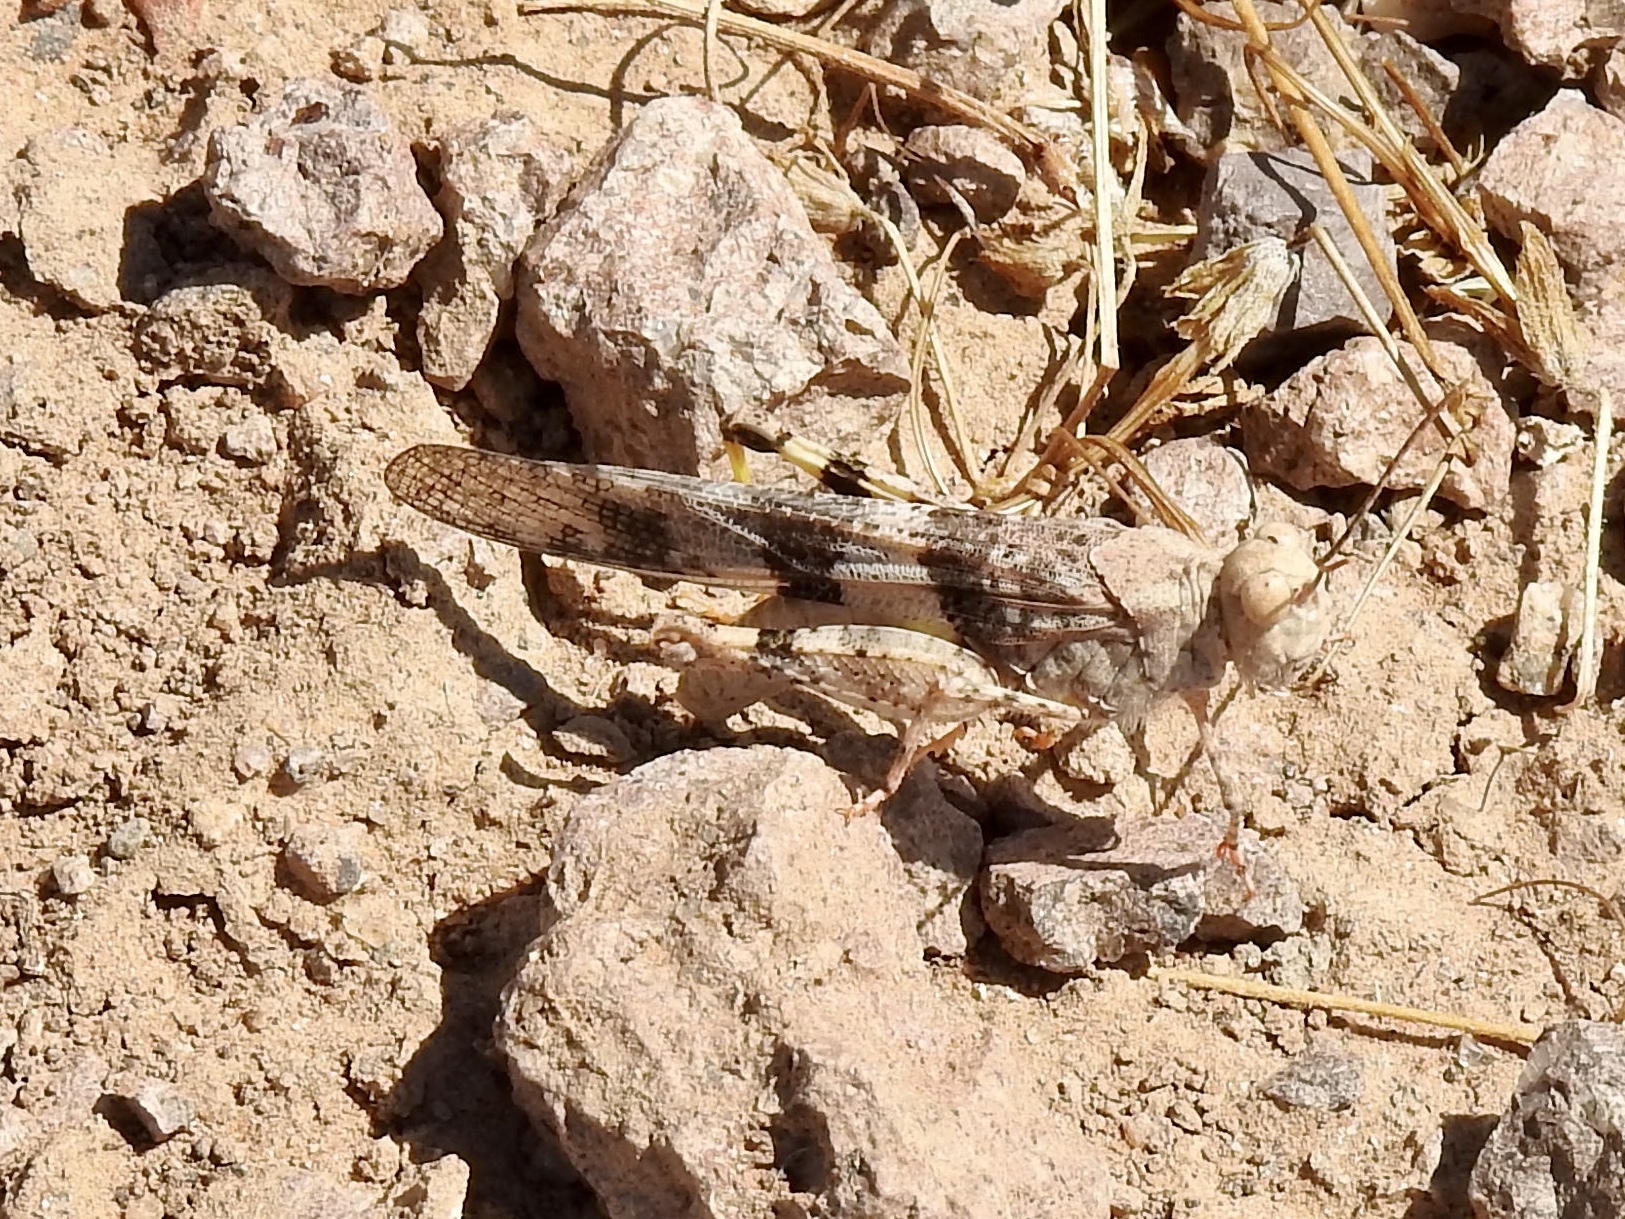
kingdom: Animalia
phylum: Arthropoda
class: Insecta
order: Orthoptera
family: Acrididae
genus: Trimerotropis
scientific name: Trimerotropis pallidipennis
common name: Pallid-winged grasshopper
